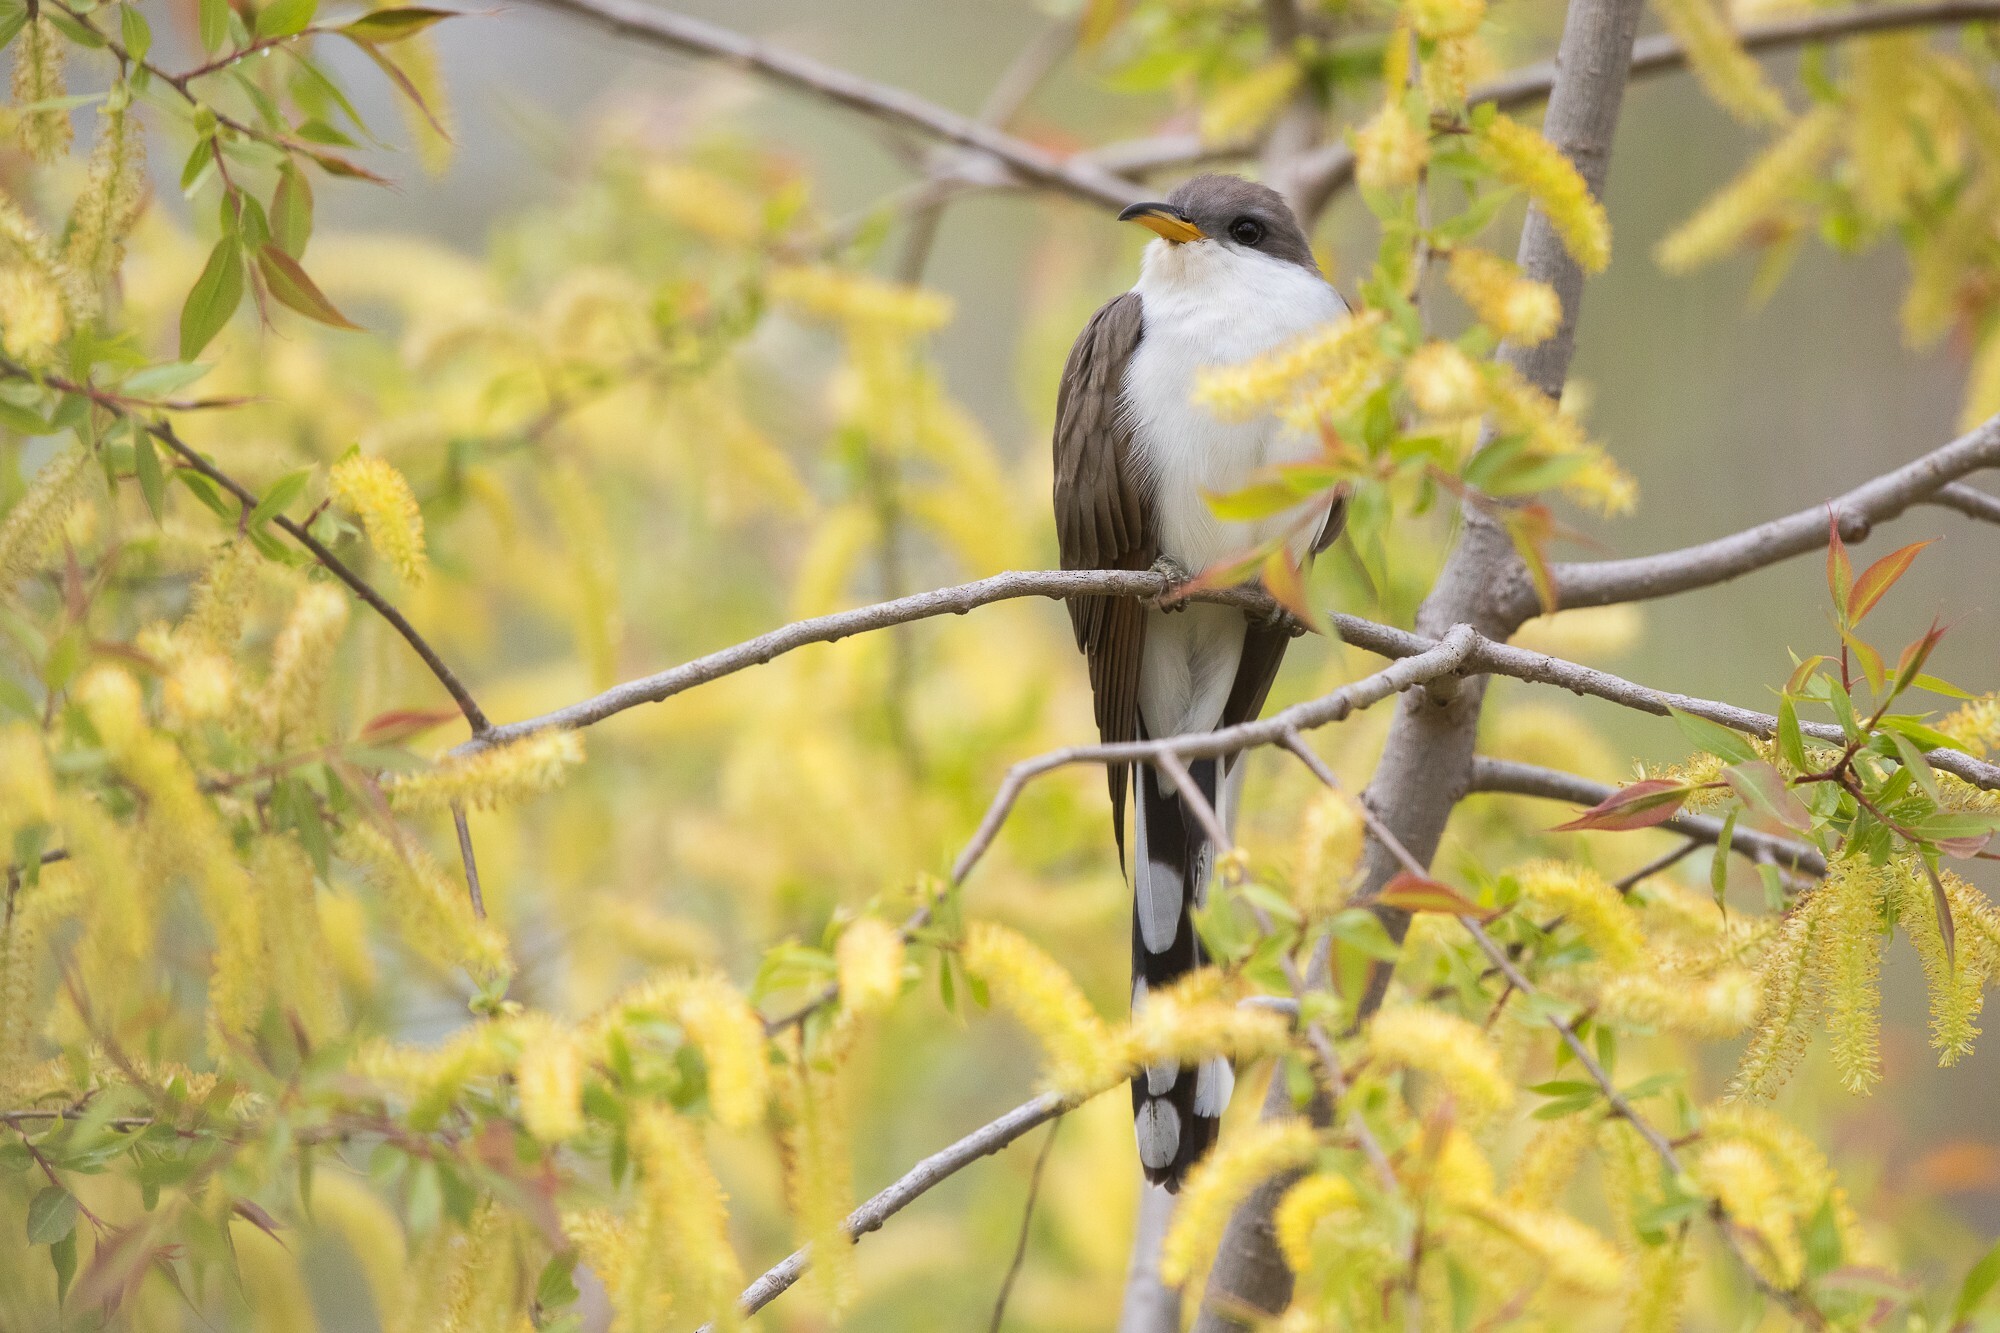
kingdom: Animalia
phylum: Chordata
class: Aves
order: Cuculiformes
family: Cuculidae
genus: Coccyzus
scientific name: Coccyzus americanus
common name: Yellow-billed cuckoo
